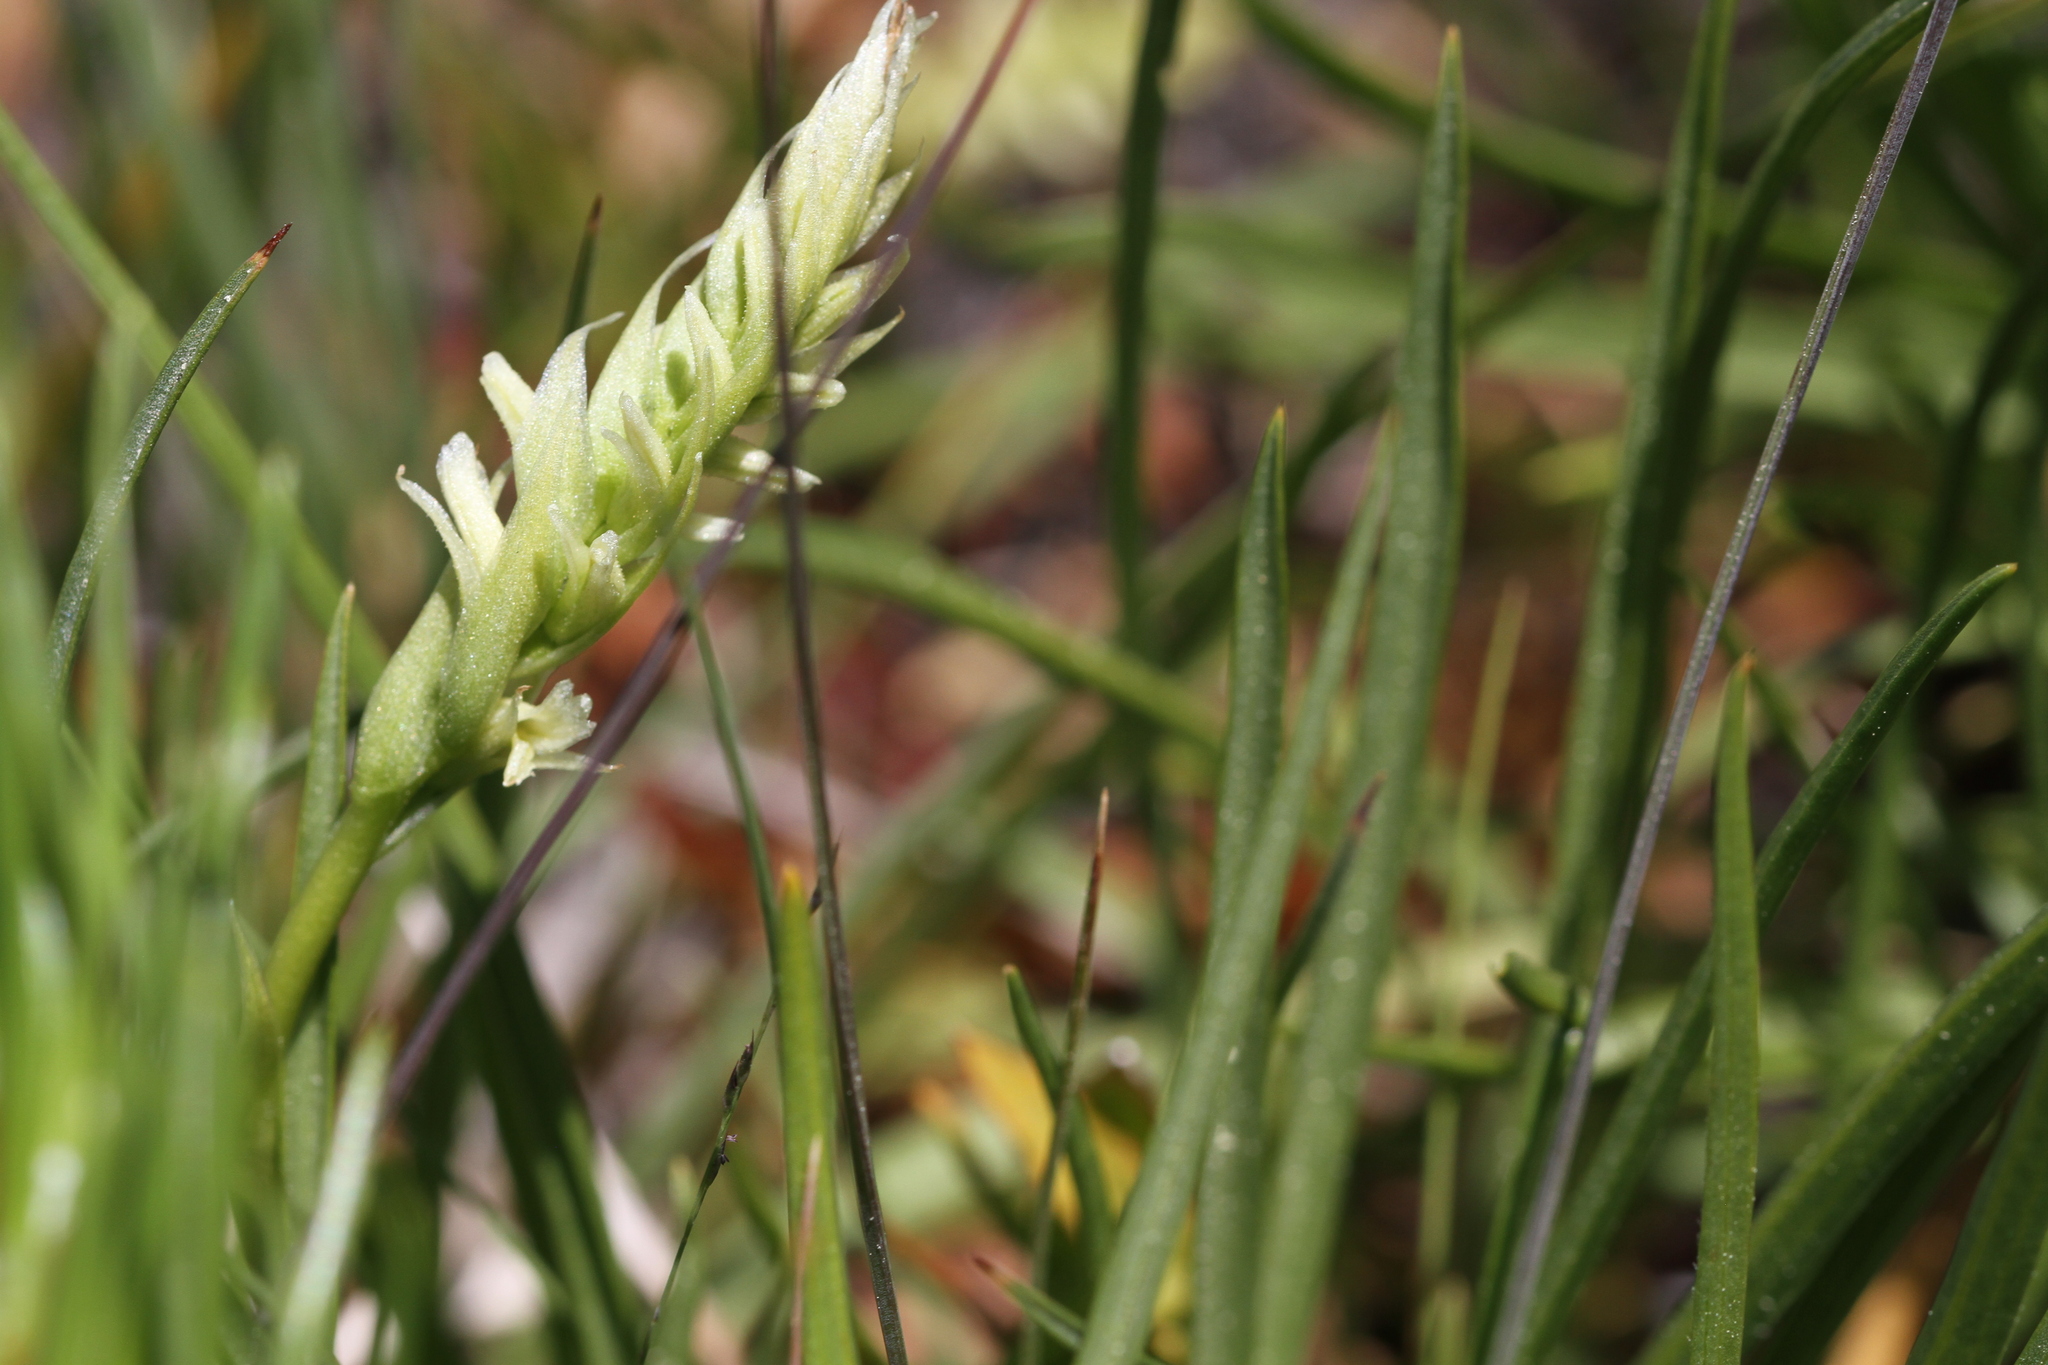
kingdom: Plantae
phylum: Tracheophyta
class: Liliopsida
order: Asparagales
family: Orchidaceae
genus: Spiranthes
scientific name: Spiranthes stellata
